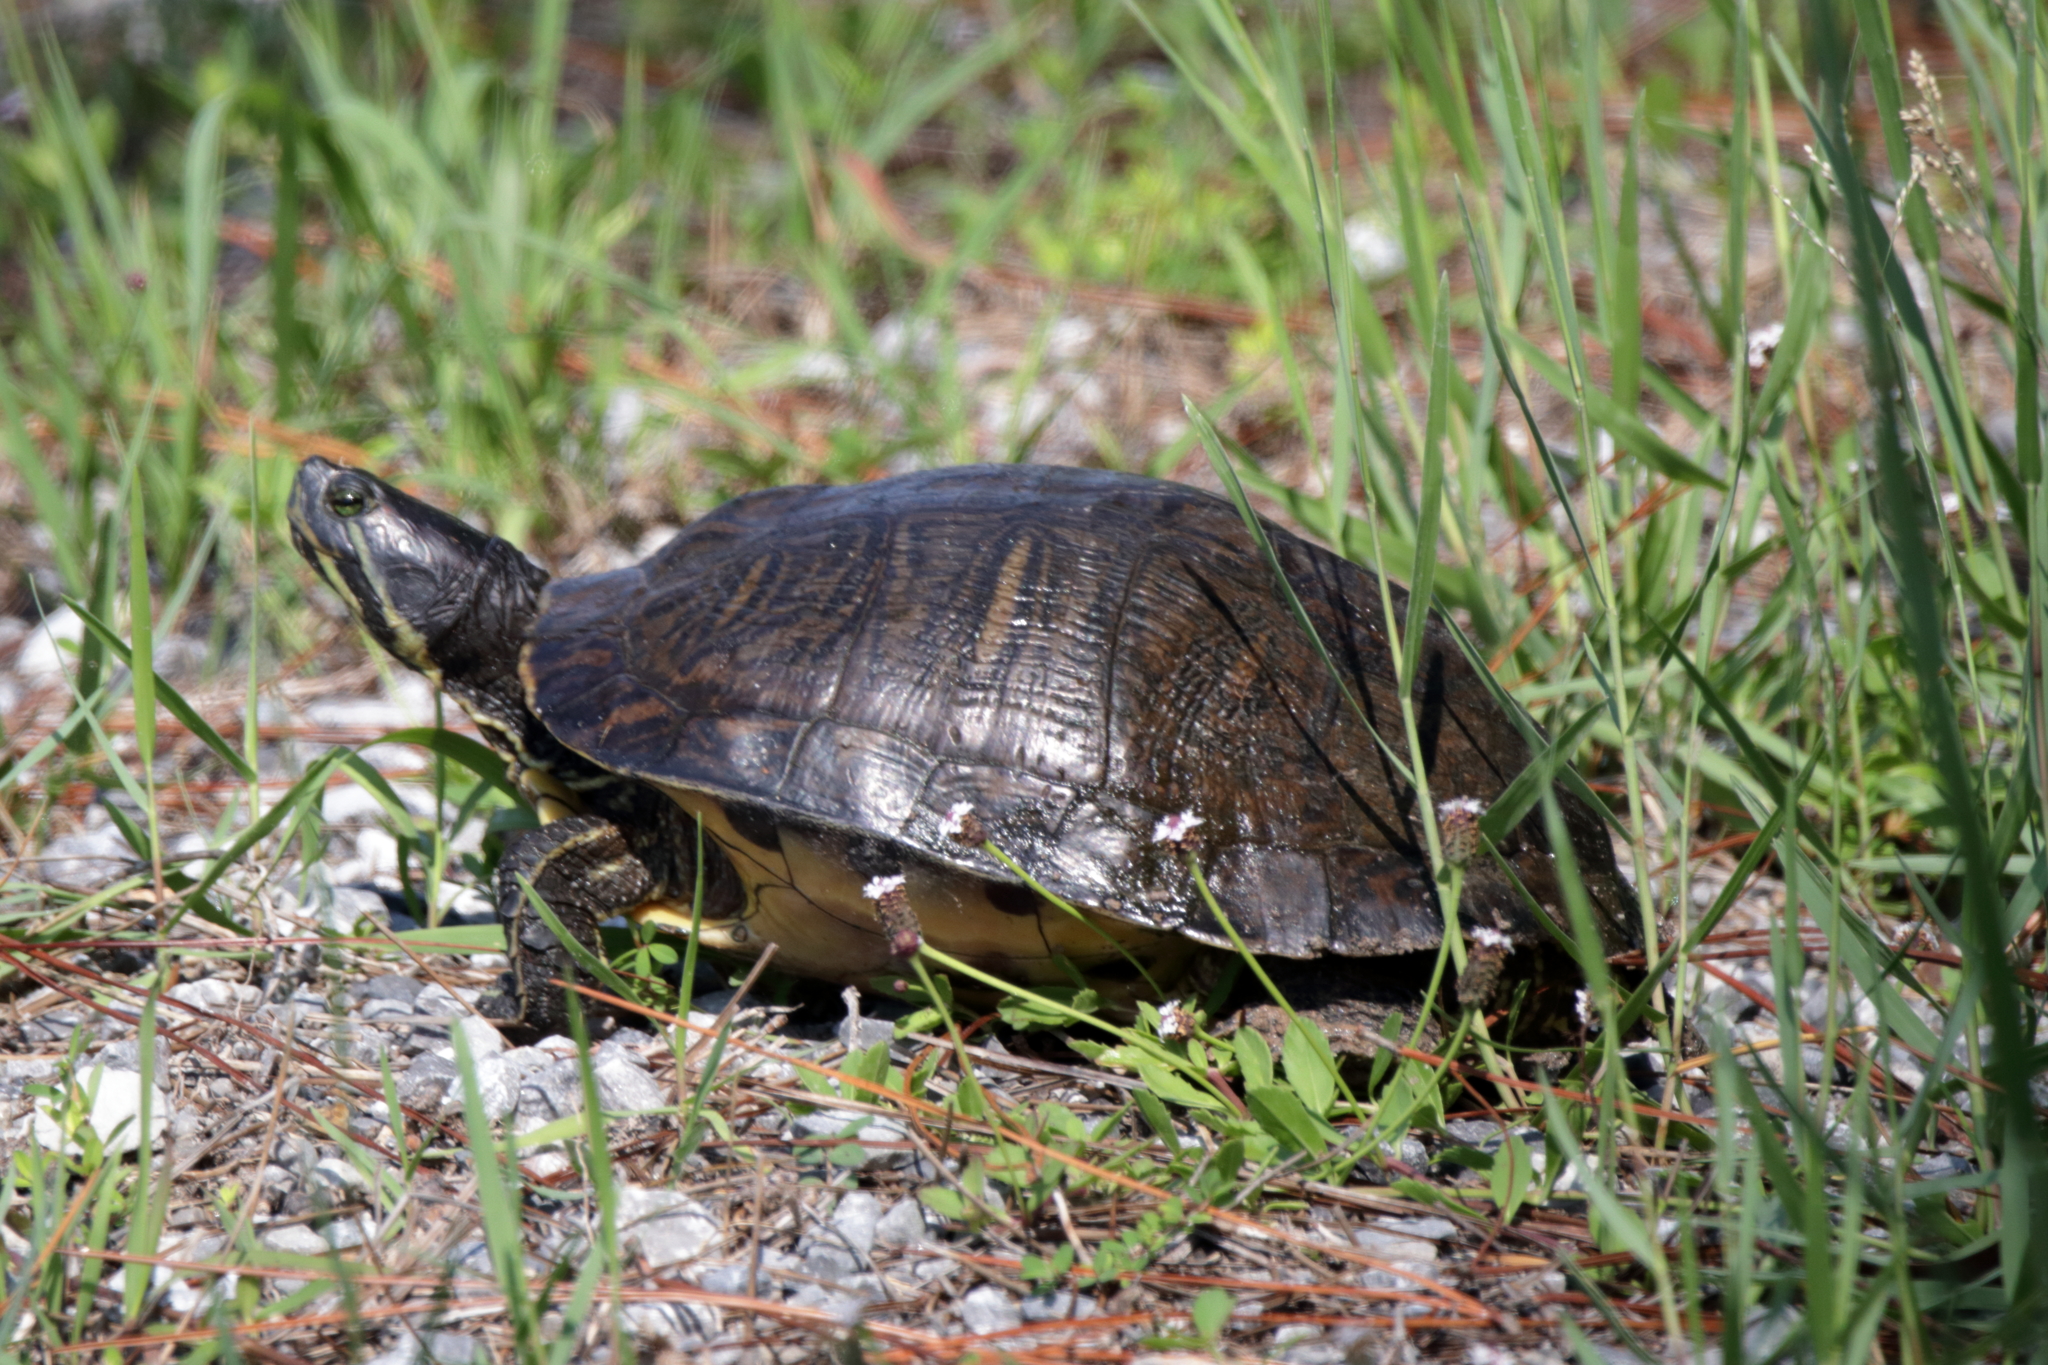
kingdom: Animalia
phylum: Chordata
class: Testudines
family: Emydidae
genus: Trachemys
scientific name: Trachemys scripta
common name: Slider
